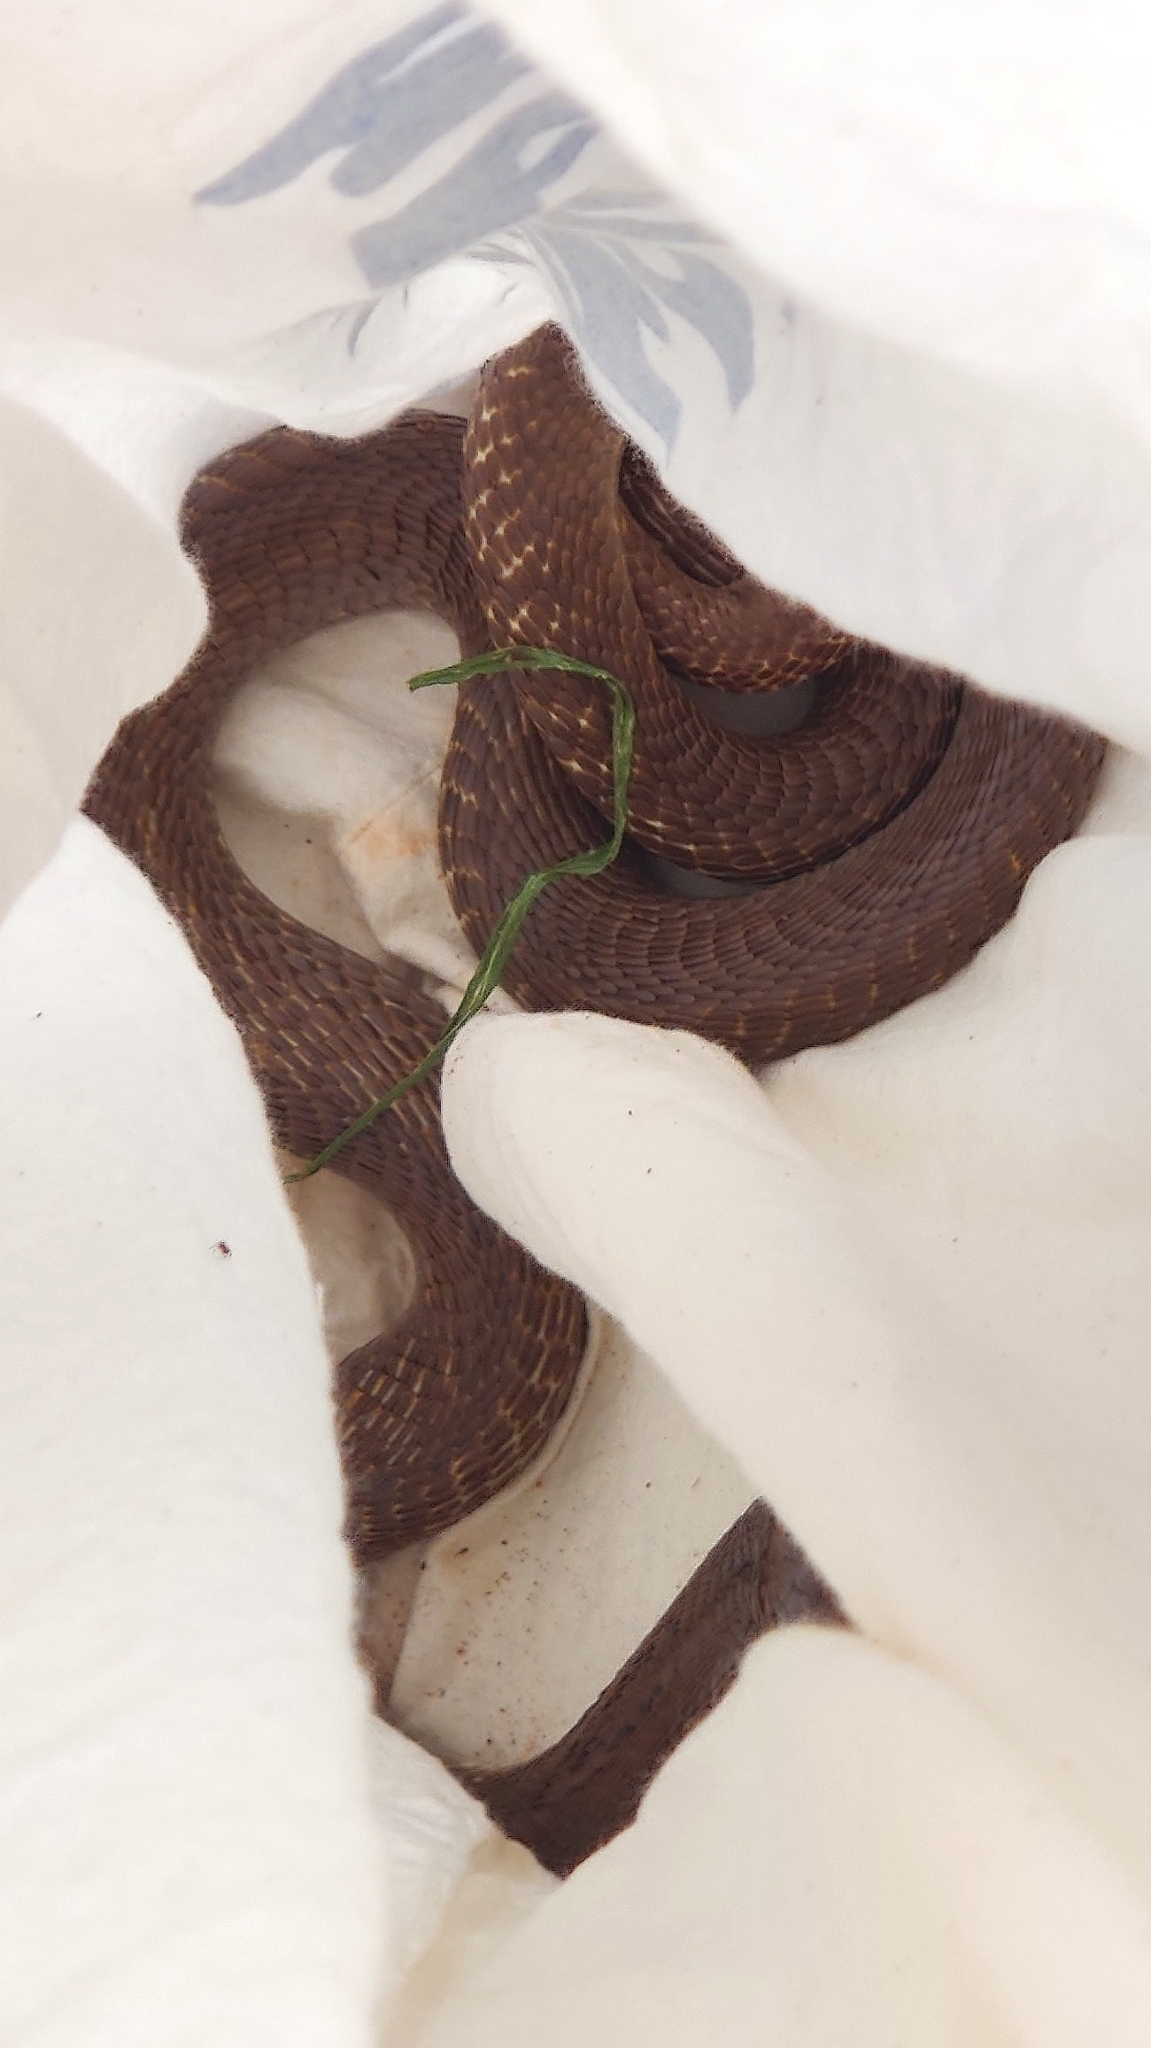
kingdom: Animalia
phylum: Chordata
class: Squamata
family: Elapidae
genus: Naja
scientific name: Naja naja
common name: Indian cobra
